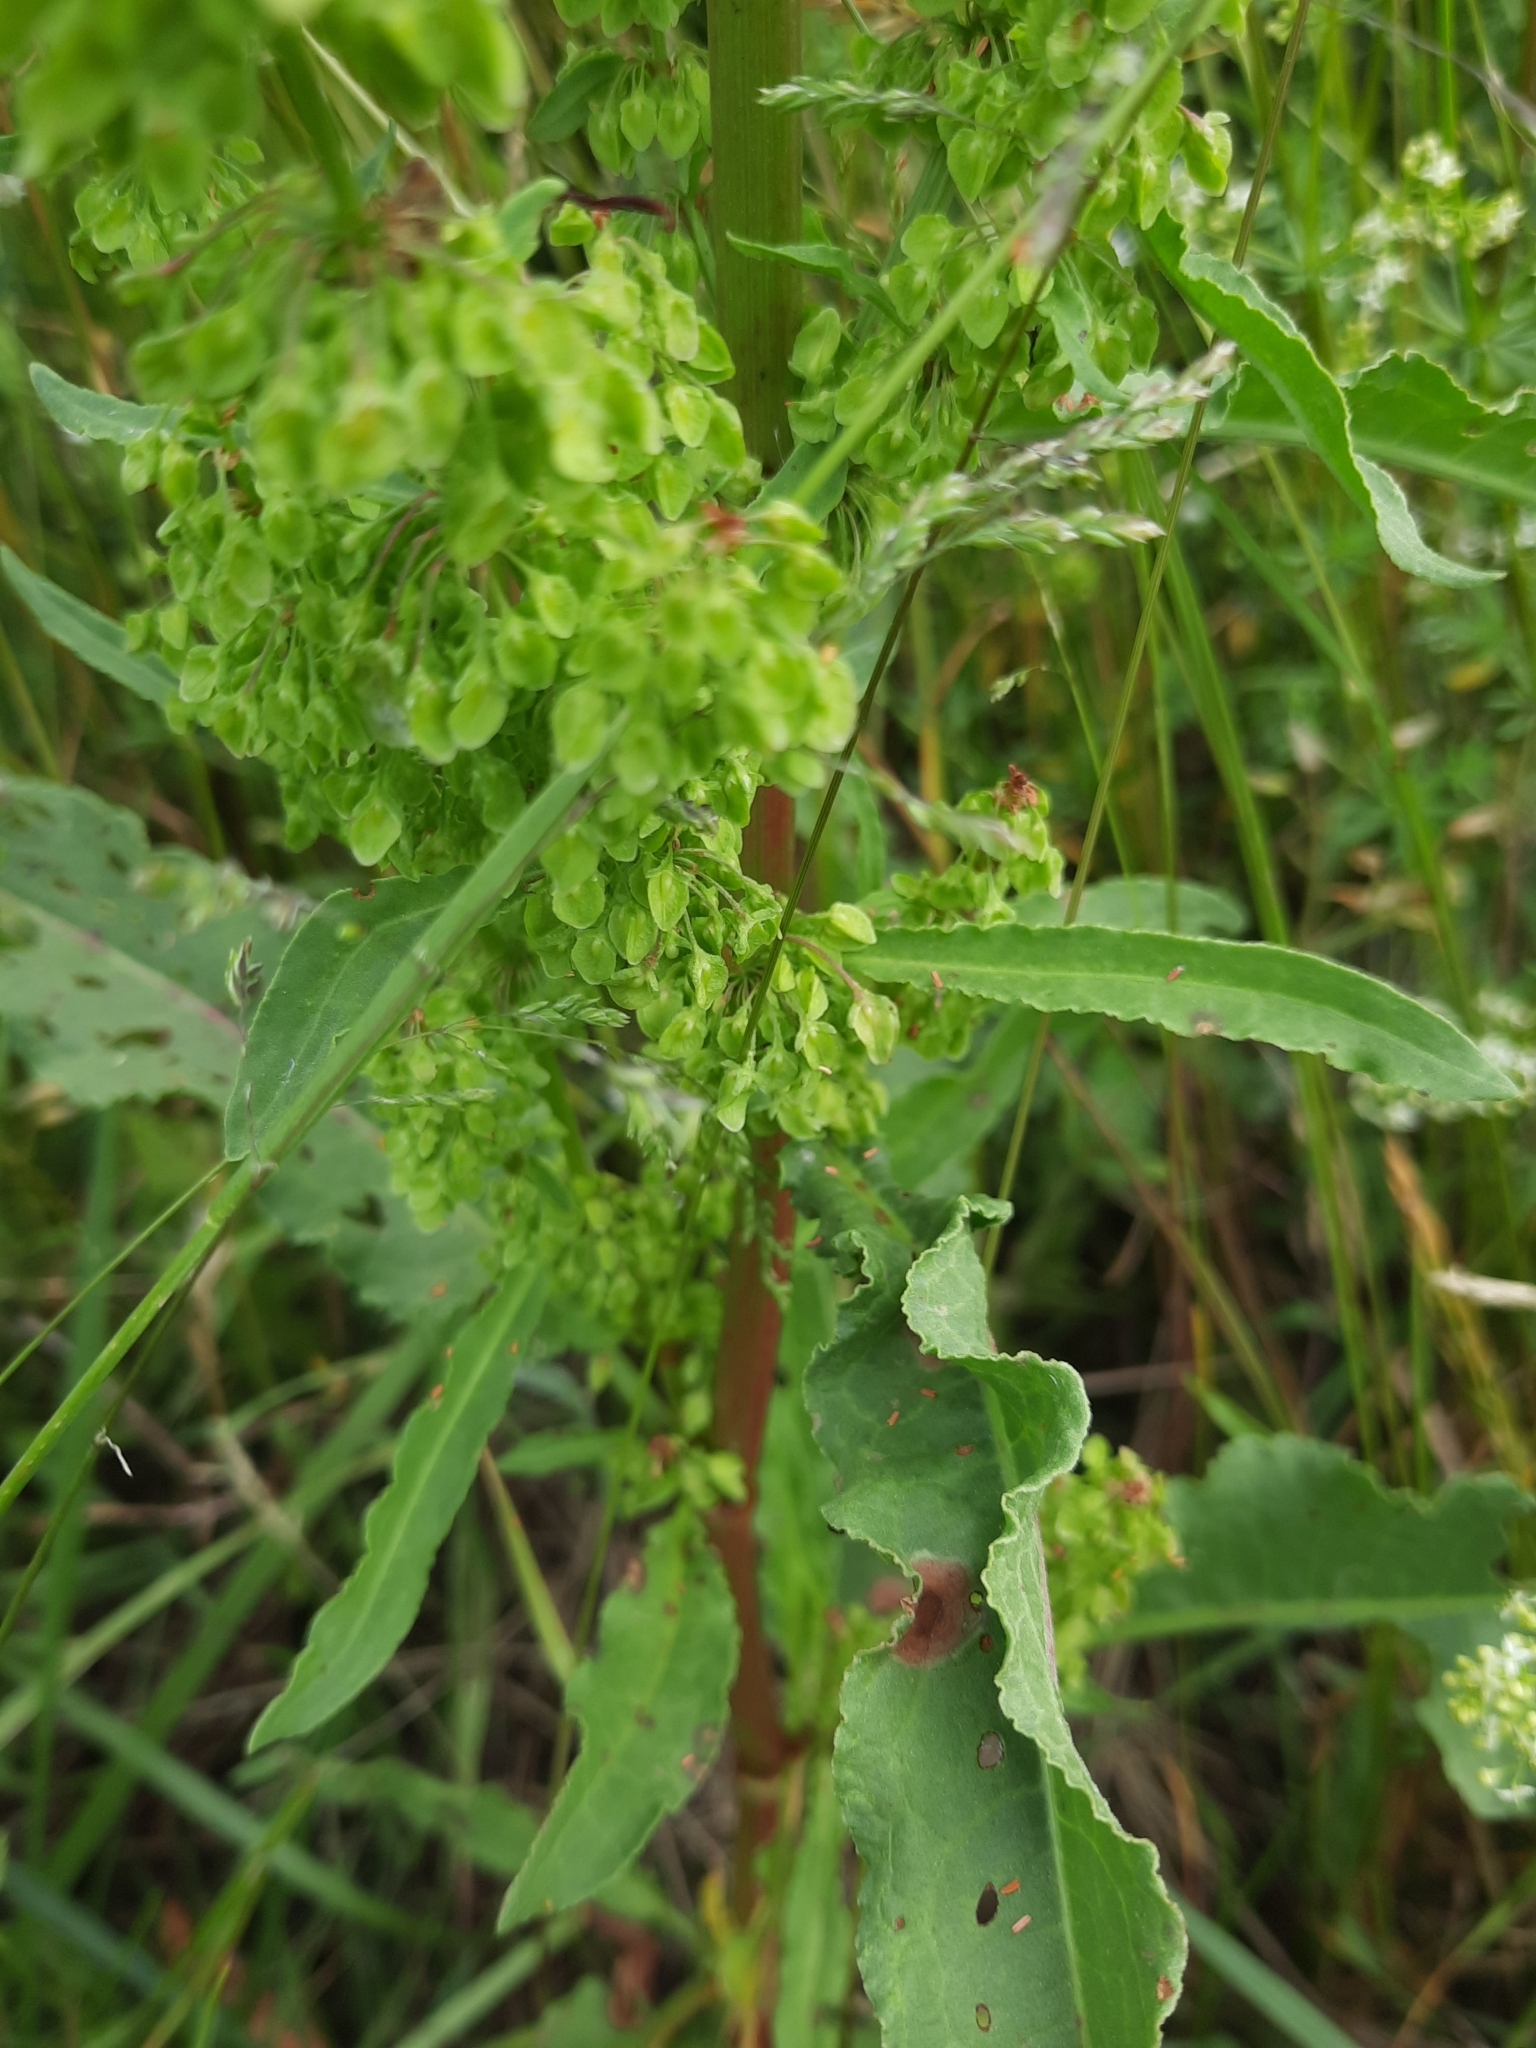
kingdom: Plantae
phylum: Tracheophyta
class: Magnoliopsida
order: Caryophyllales
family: Polygonaceae
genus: Rumex
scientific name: Rumex crispus
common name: Curled dock
